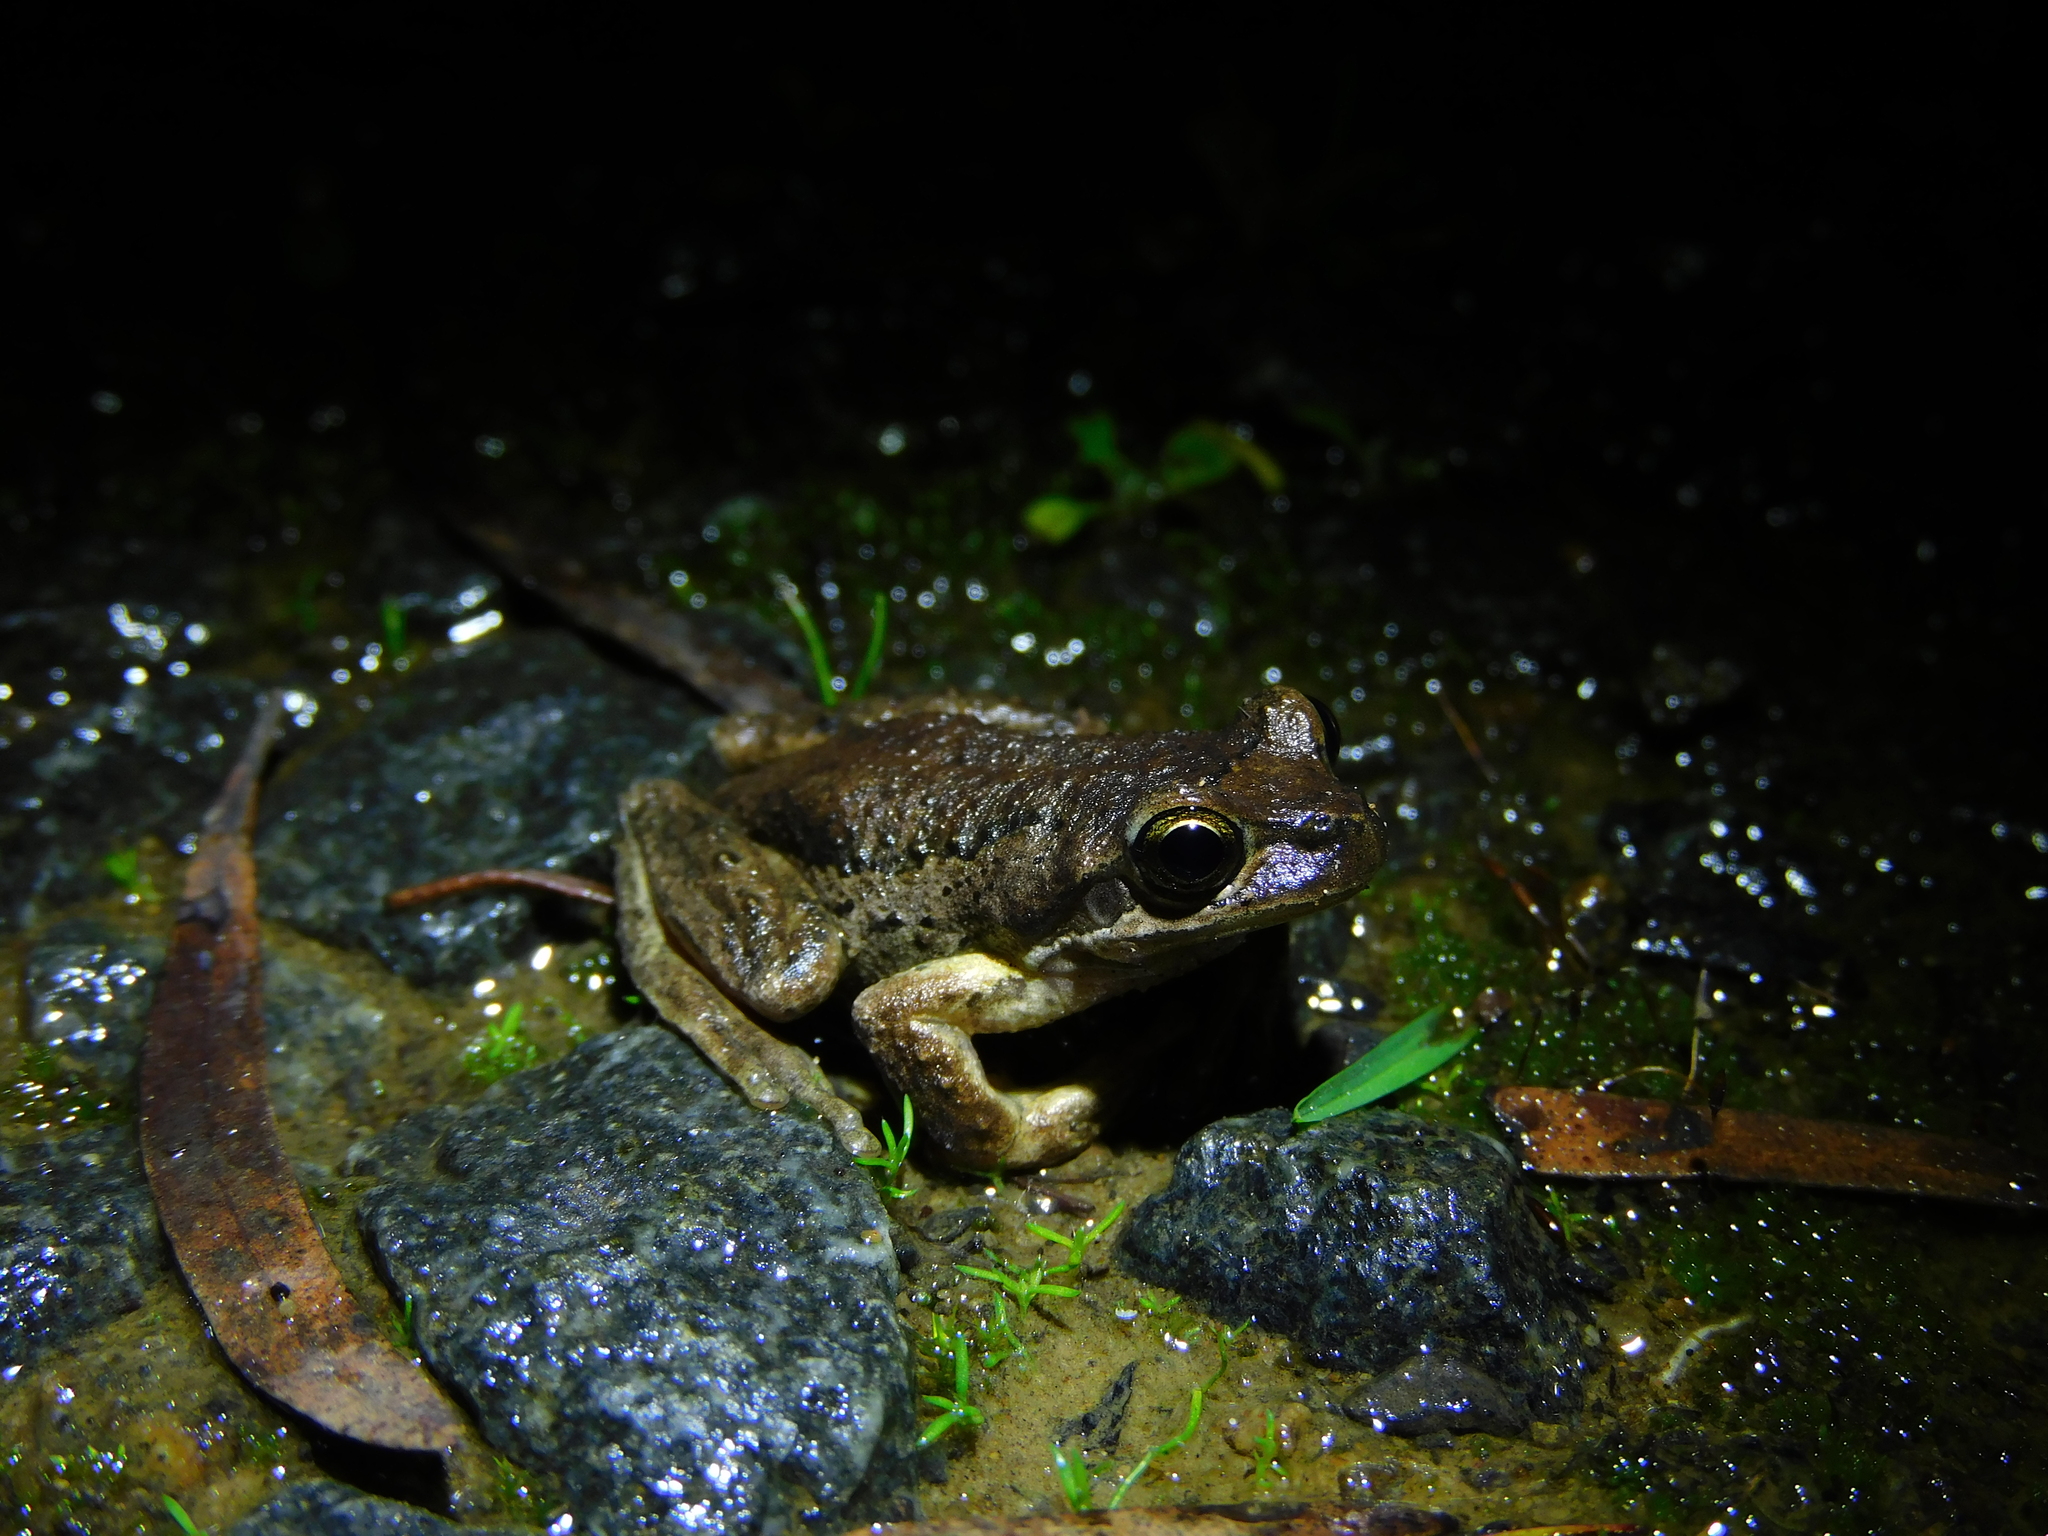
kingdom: Animalia
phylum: Chordata
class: Amphibia
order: Anura
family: Pelodryadidae
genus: Litoria
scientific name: Litoria ewingii
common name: Southern brown tree frog
